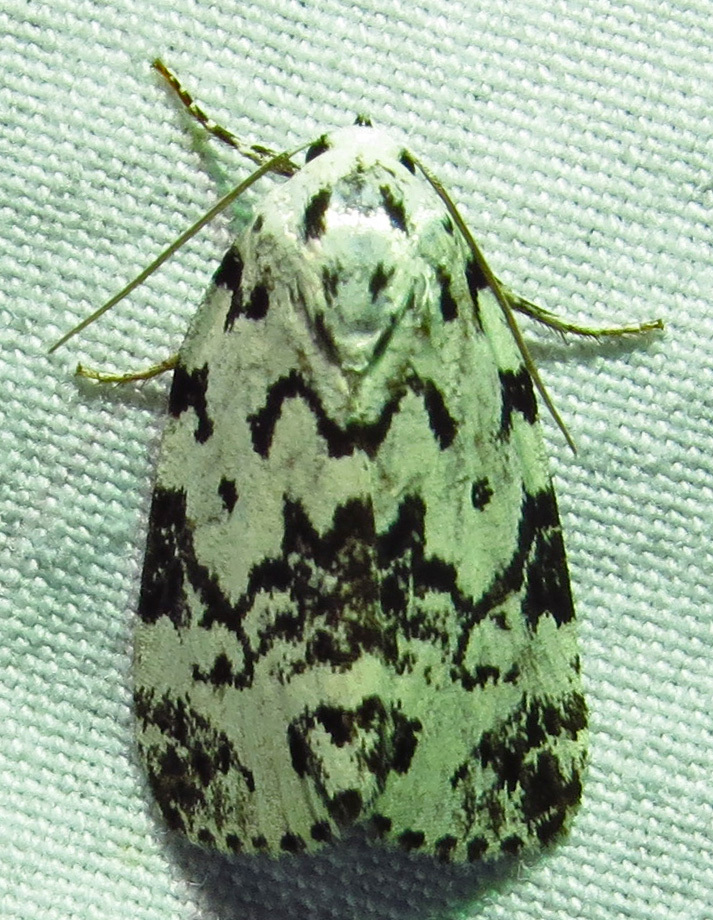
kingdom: Animalia
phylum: Arthropoda
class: Insecta
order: Lepidoptera
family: Noctuidae
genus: Polygrammate
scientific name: Polygrammate hebraeicum
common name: Hebrew moth
